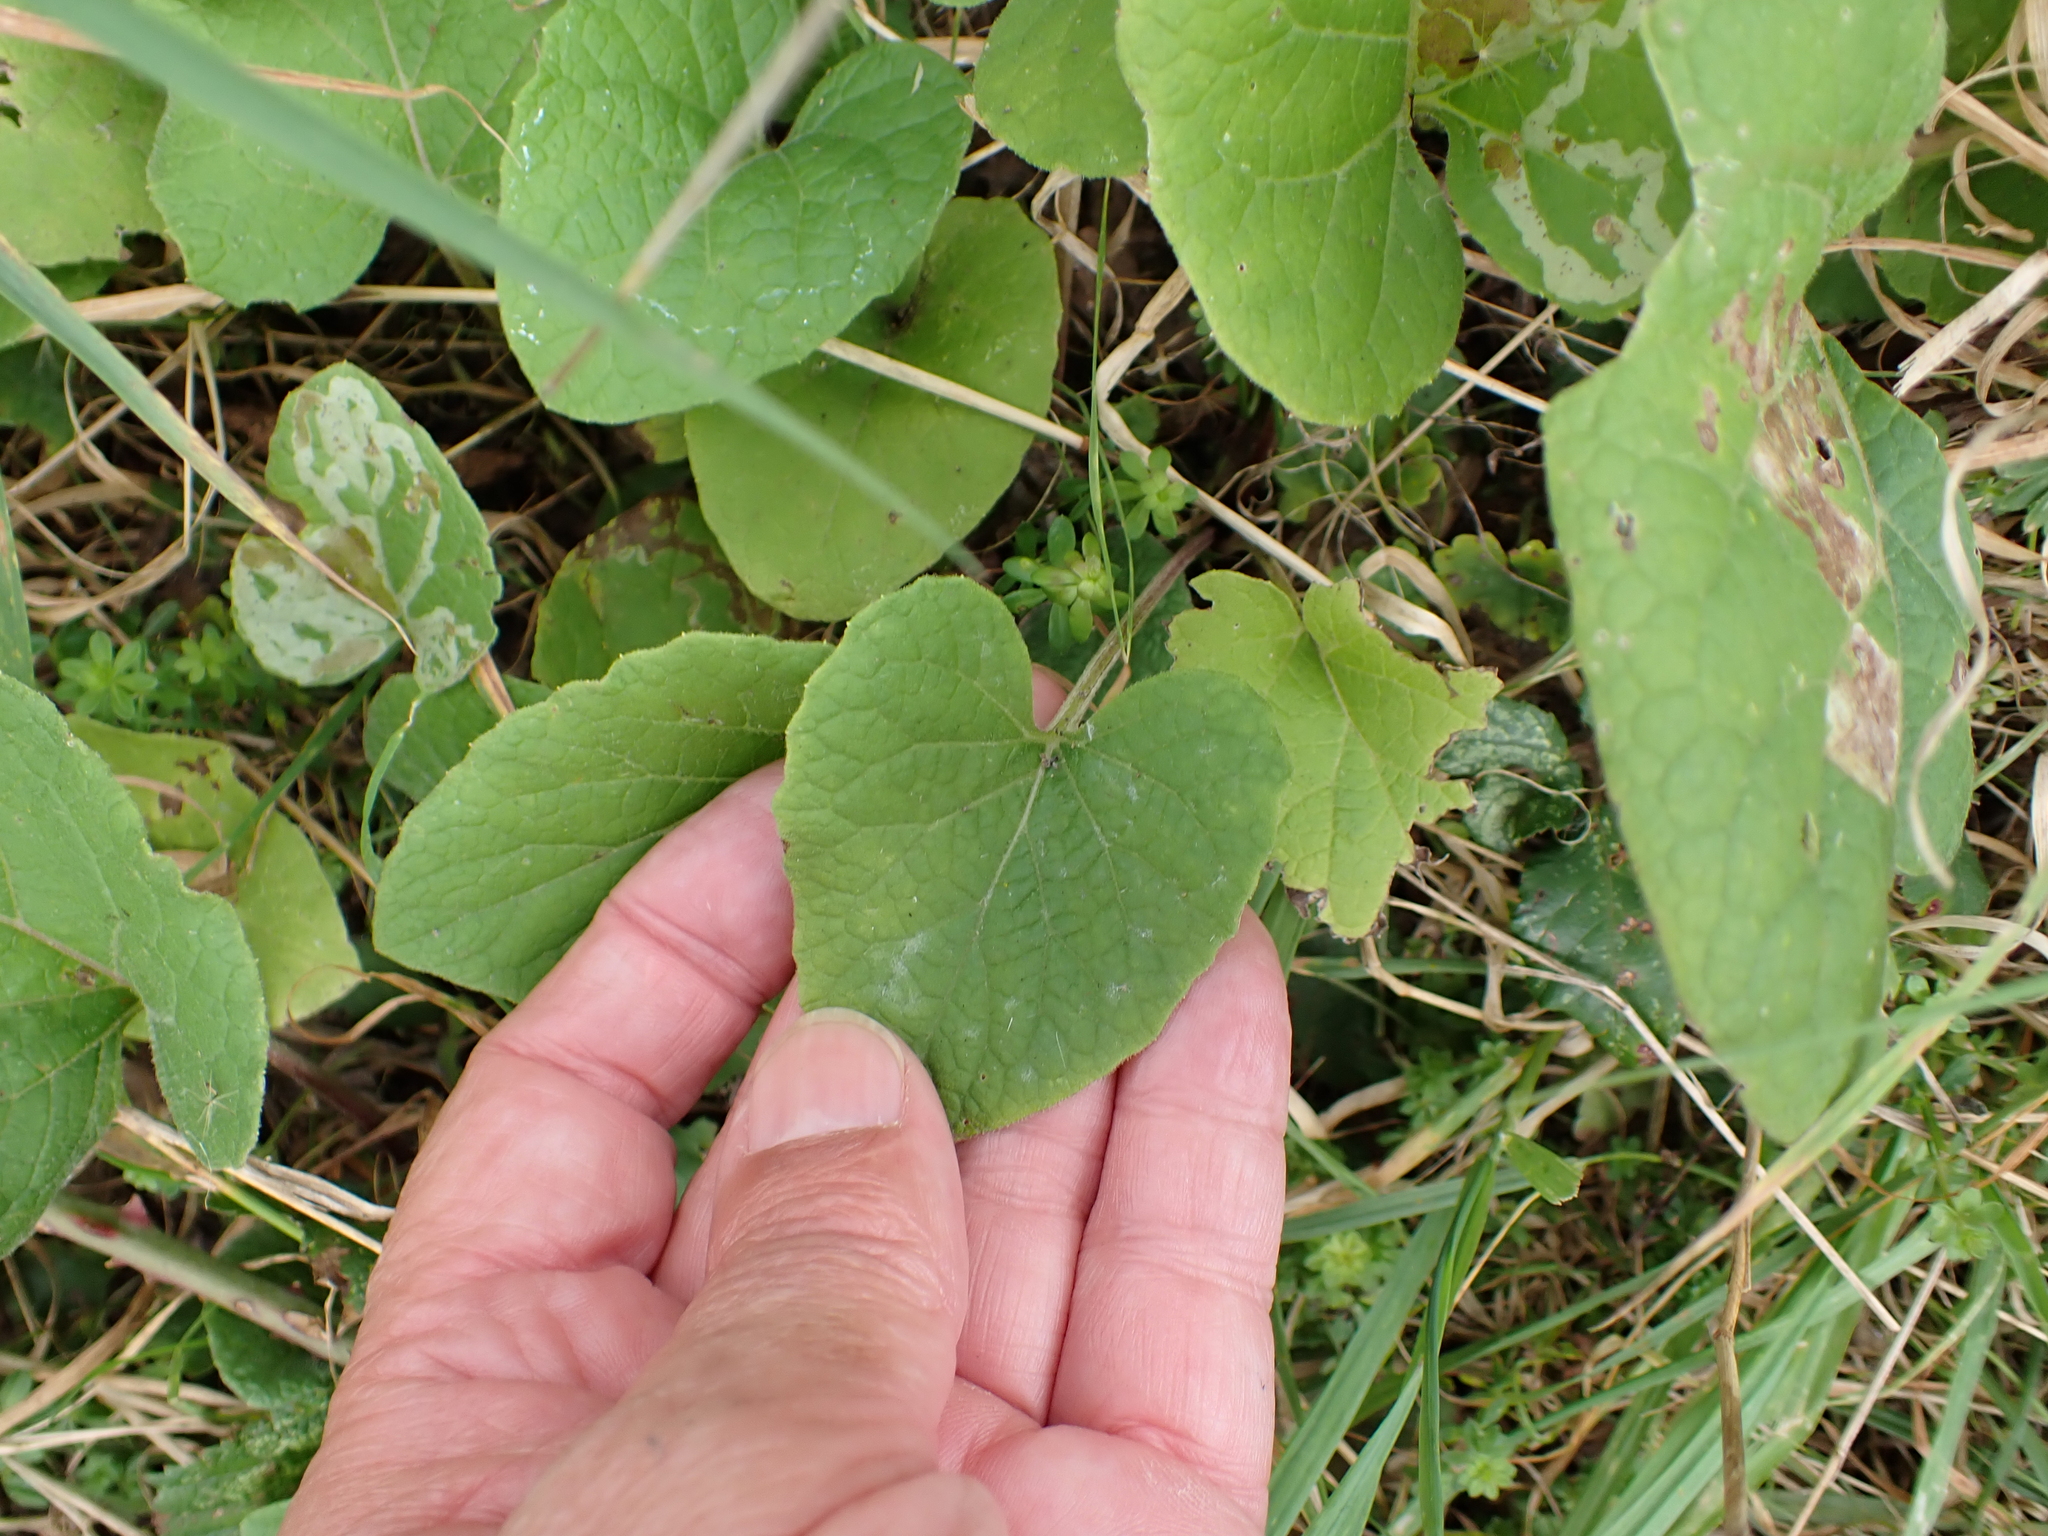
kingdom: Plantae
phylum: Tracheophyta
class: Magnoliopsida
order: Asterales
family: Asteraceae
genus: Petasites
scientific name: Petasites pyrenaicus
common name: Winter heliotrope
